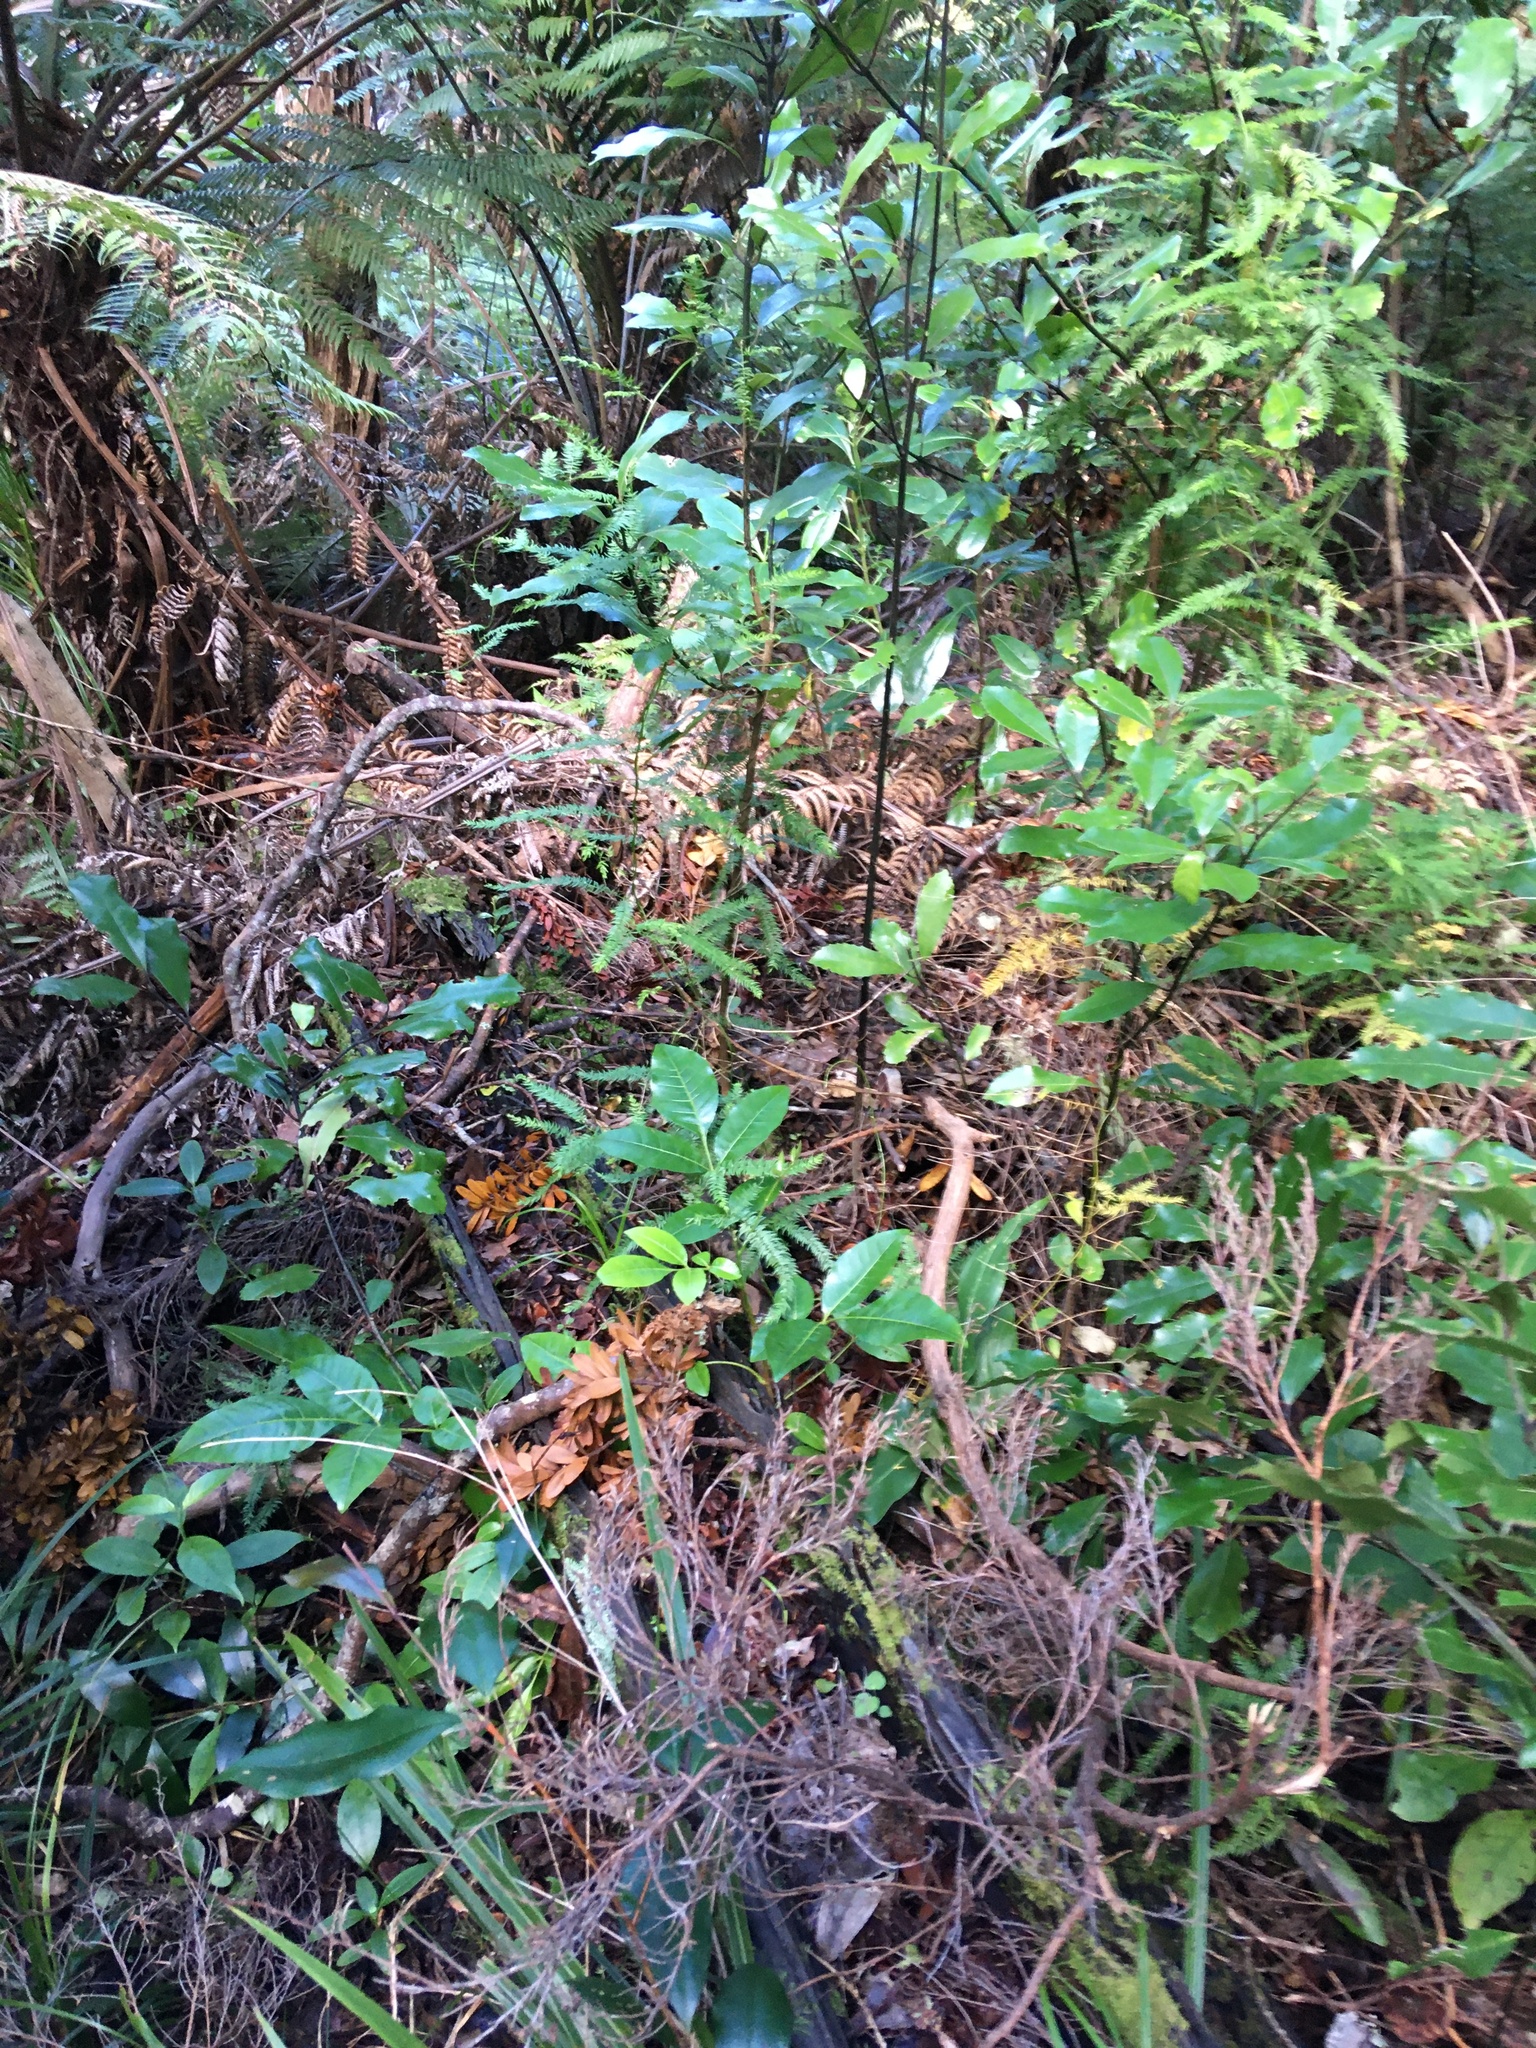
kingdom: Plantae
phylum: Tracheophyta
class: Magnoliopsida
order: Sapindales
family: Meliaceae
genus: Didymocheton
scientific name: Didymocheton spectabilis
